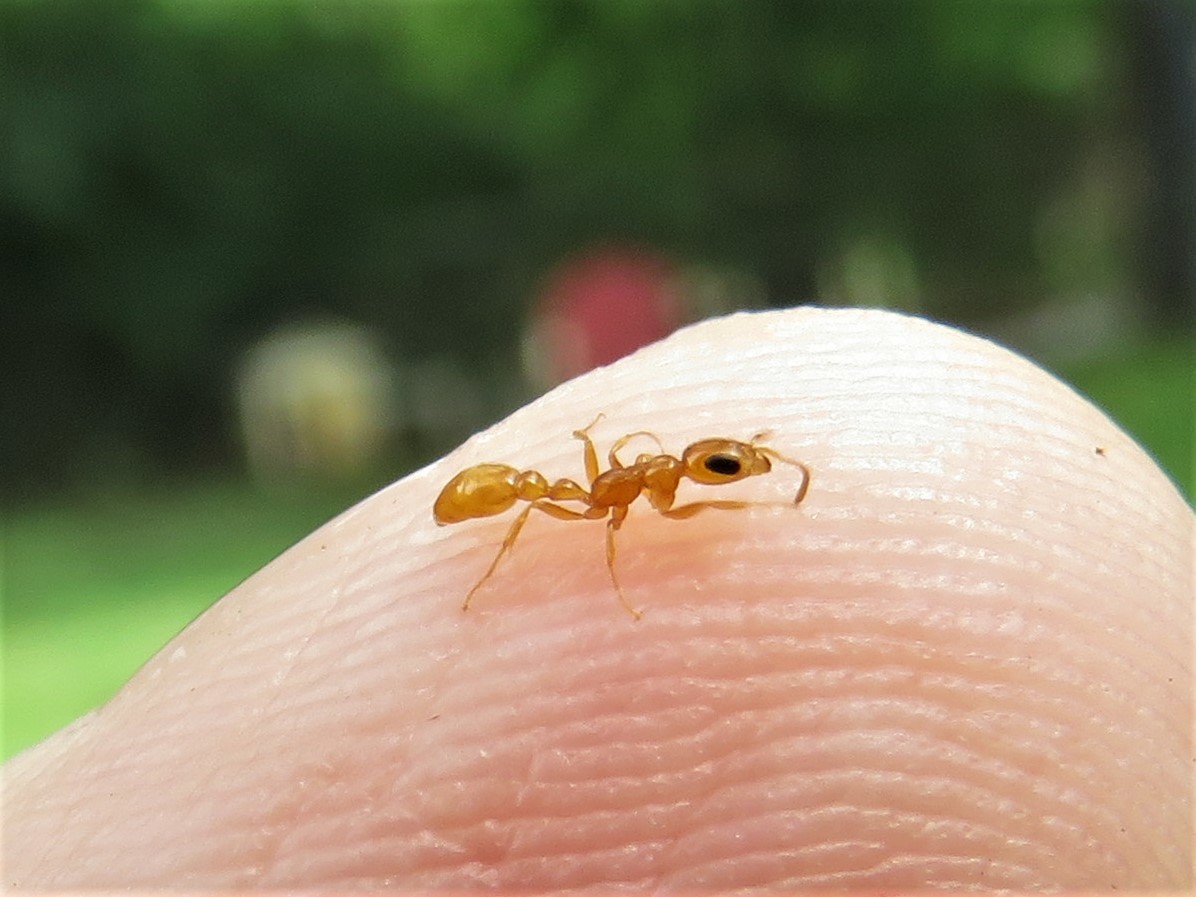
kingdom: Animalia
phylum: Arthropoda
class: Insecta
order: Hymenoptera
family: Formicidae
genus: Pseudomyrmex
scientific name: Pseudomyrmex pallidus
